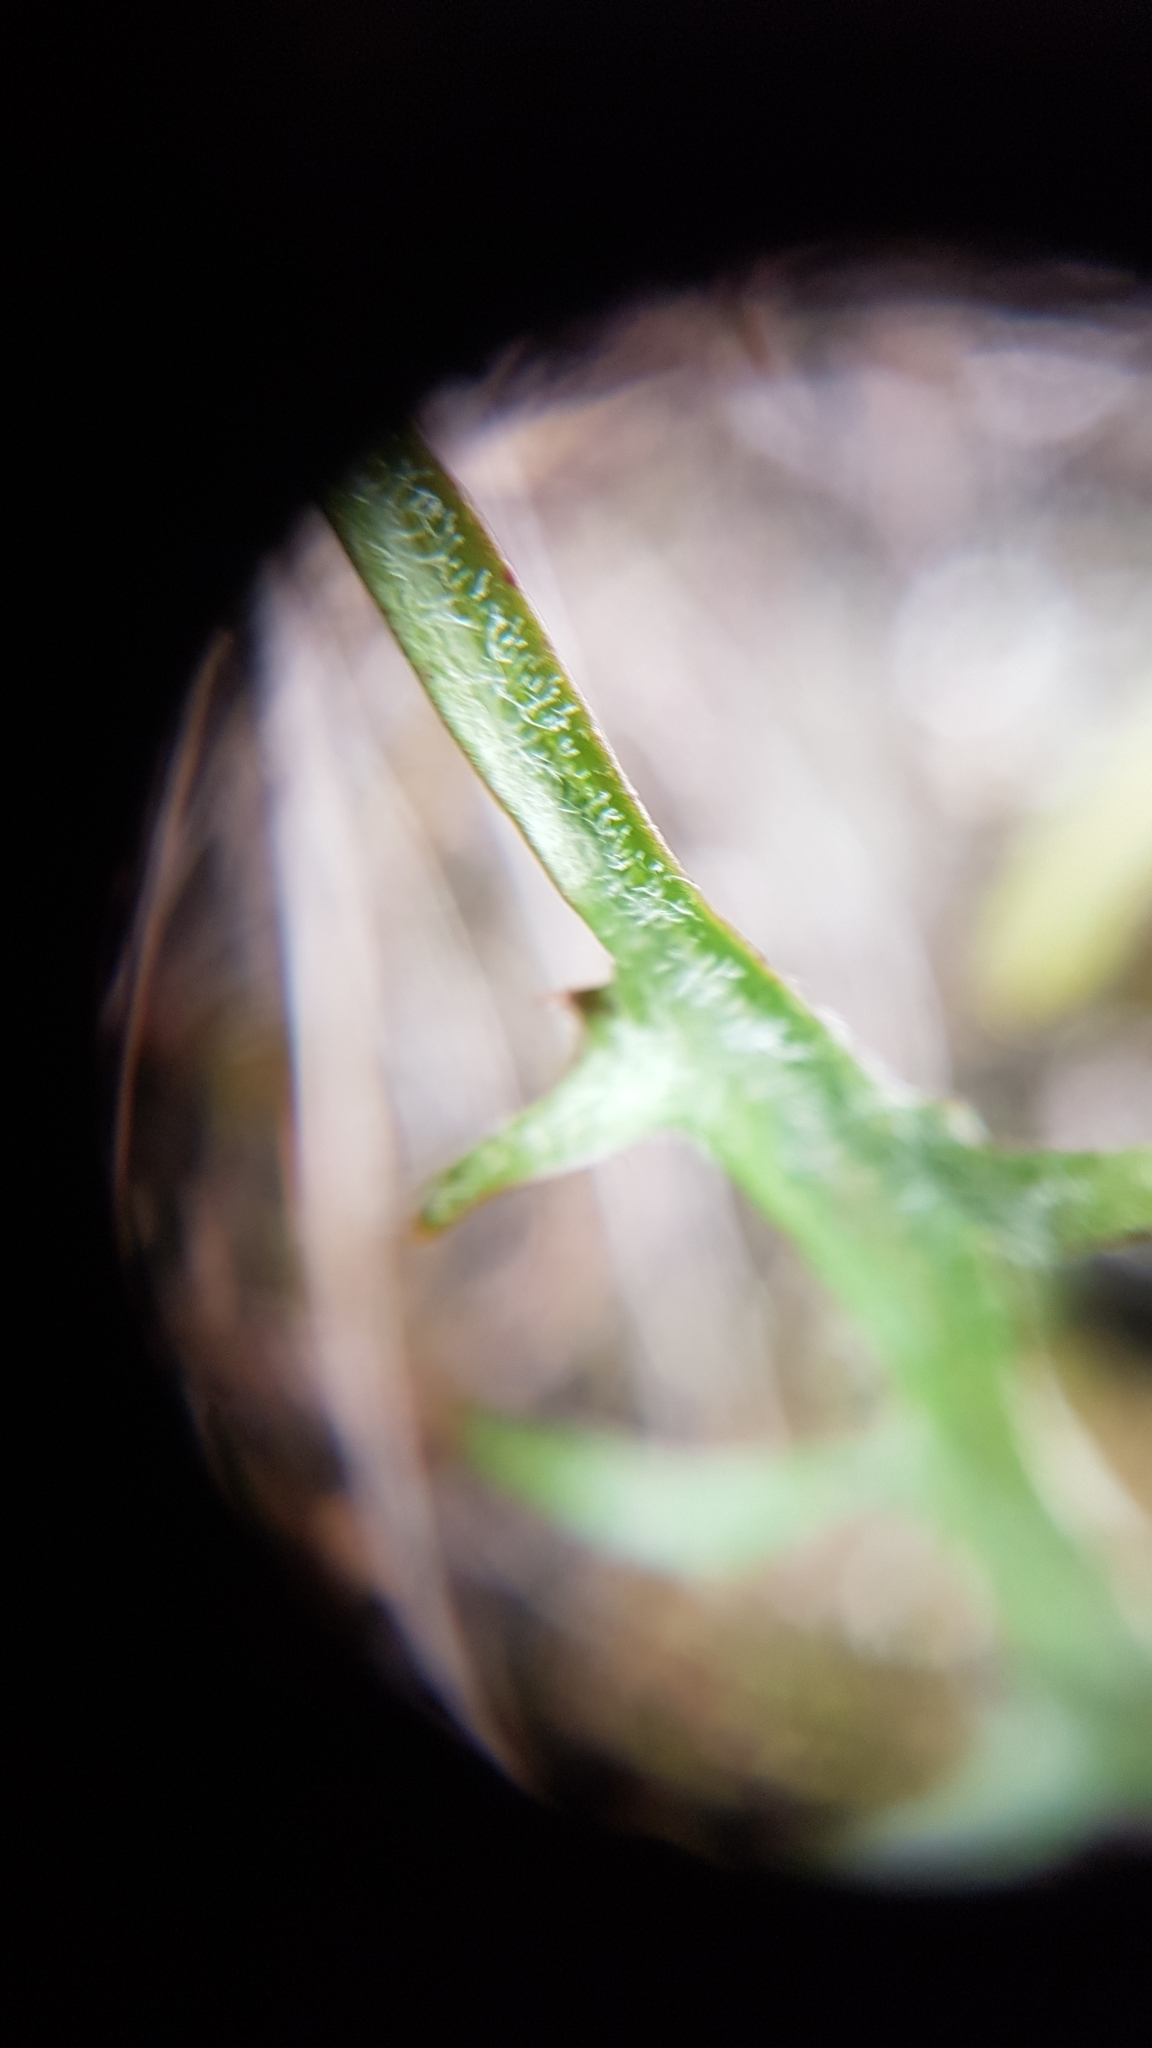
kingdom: Plantae
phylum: Tracheophyta
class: Magnoliopsida
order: Asterales
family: Asteraceae
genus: Agoseris
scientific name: Agoseris grandiflora
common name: Grassland agoseris
